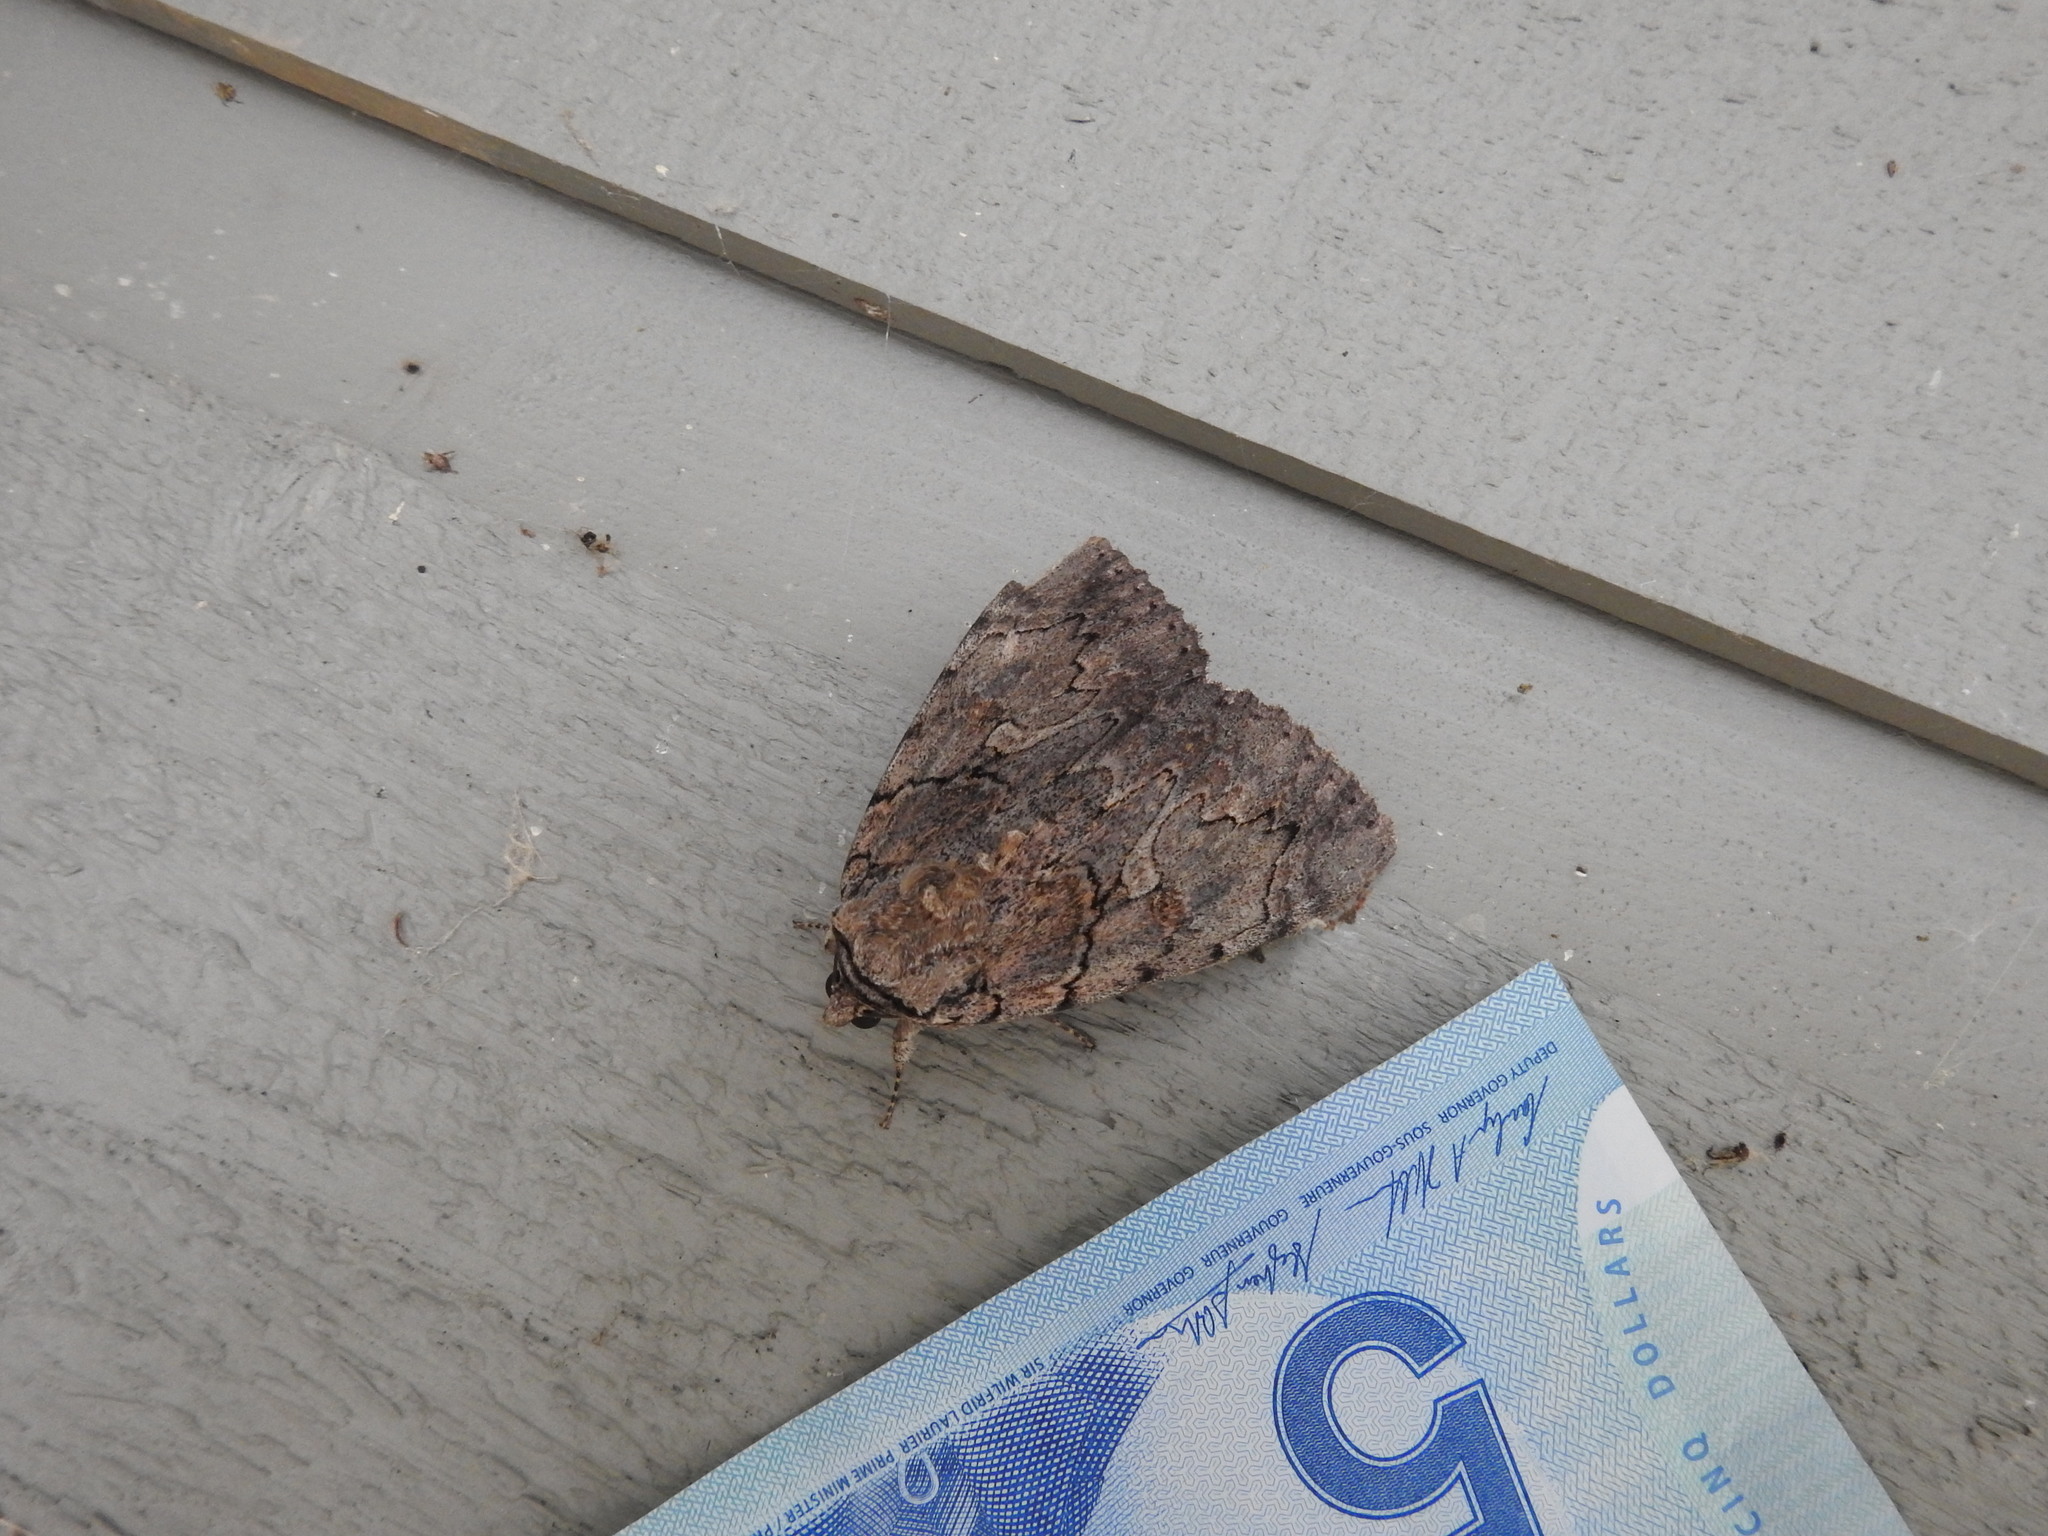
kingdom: Animalia
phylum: Arthropoda
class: Insecta
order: Lepidoptera
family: Erebidae
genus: Catocala
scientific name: Catocala amatrix
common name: Sweetheart underwing
